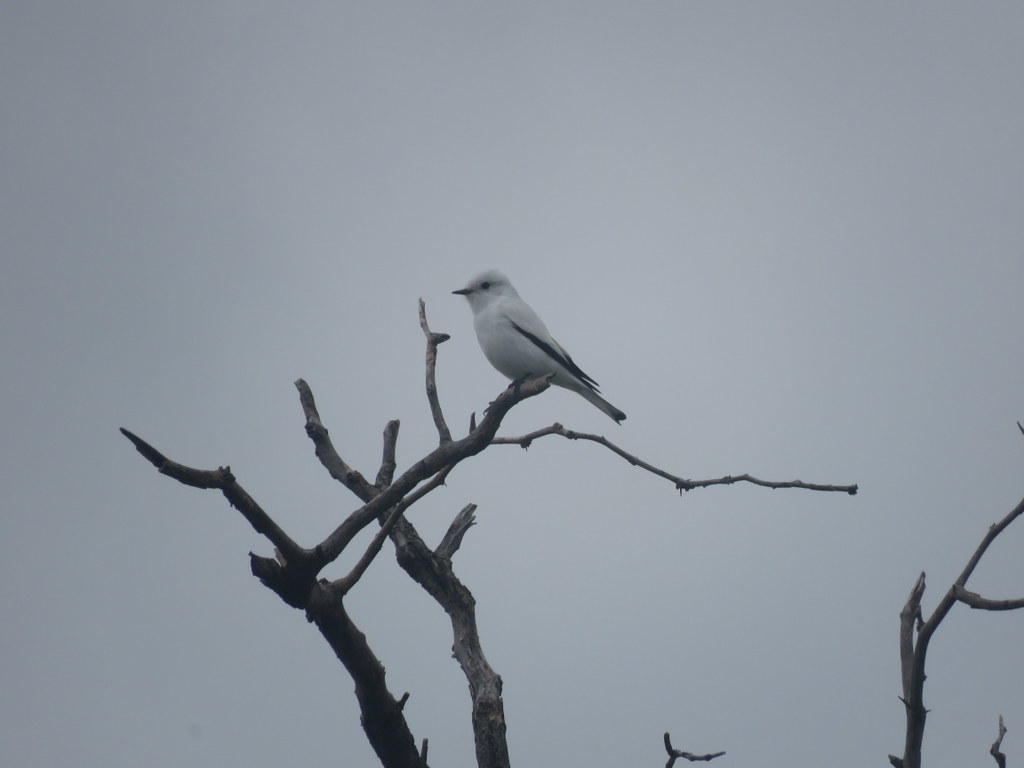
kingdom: Animalia
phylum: Chordata
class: Aves
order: Passeriformes
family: Tyrannidae
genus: Xolmis
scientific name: Xolmis irupero
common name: White monjita
